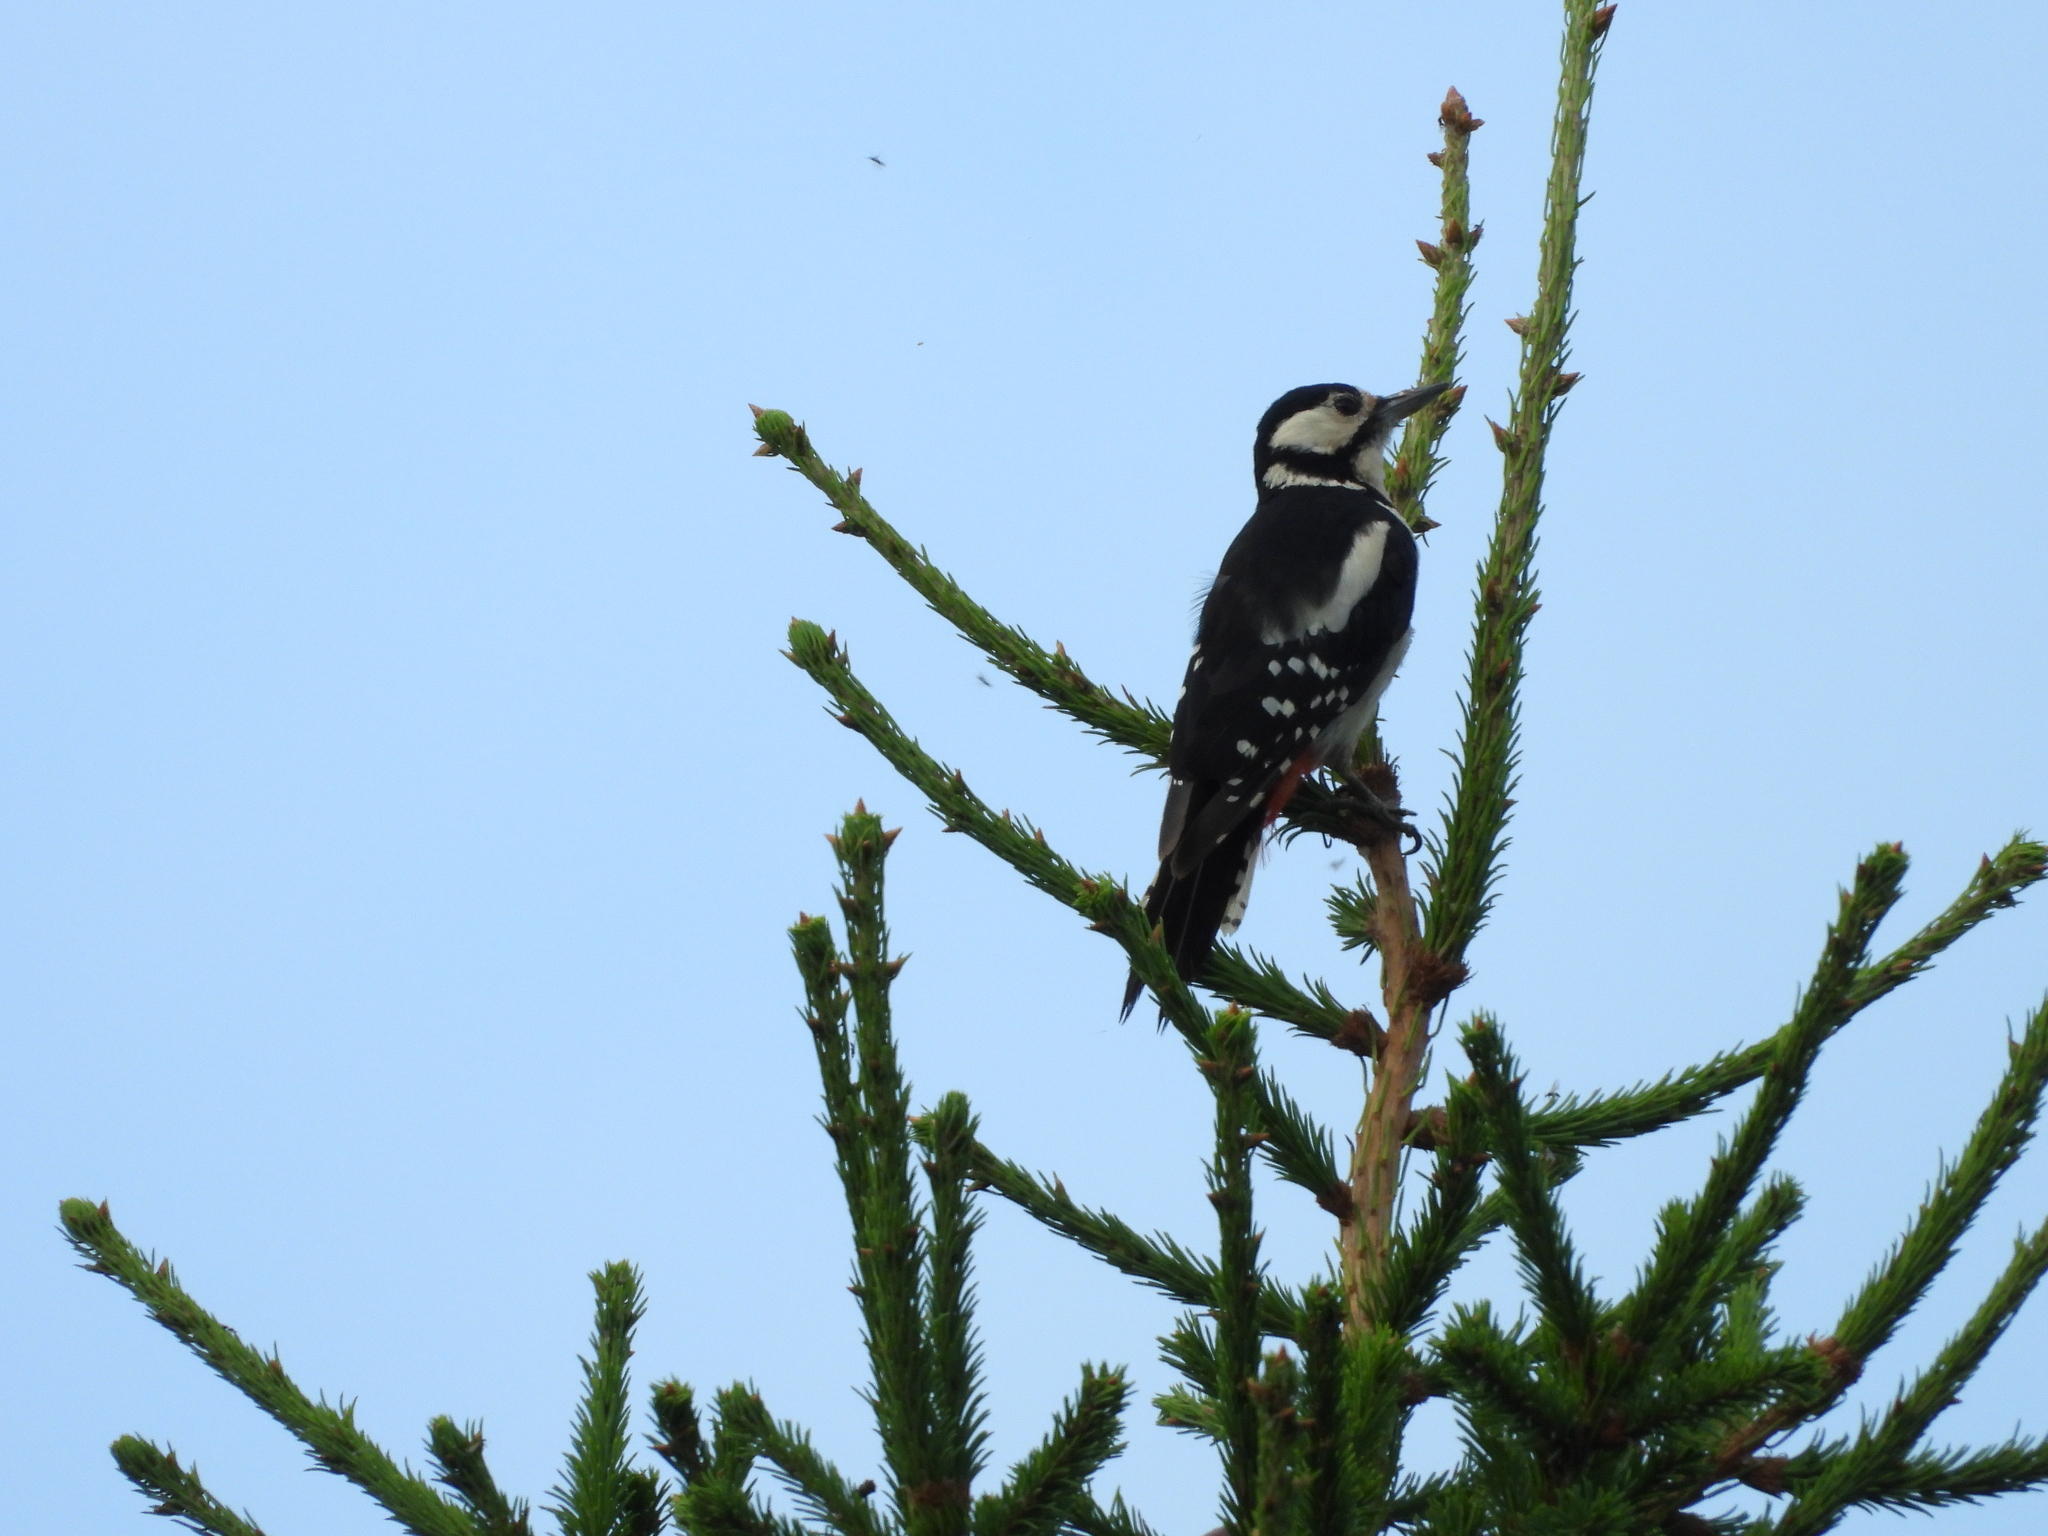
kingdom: Animalia
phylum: Chordata
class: Aves
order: Piciformes
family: Picidae
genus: Dendrocopos
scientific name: Dendrocopos major
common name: Great spotted woodpecker
